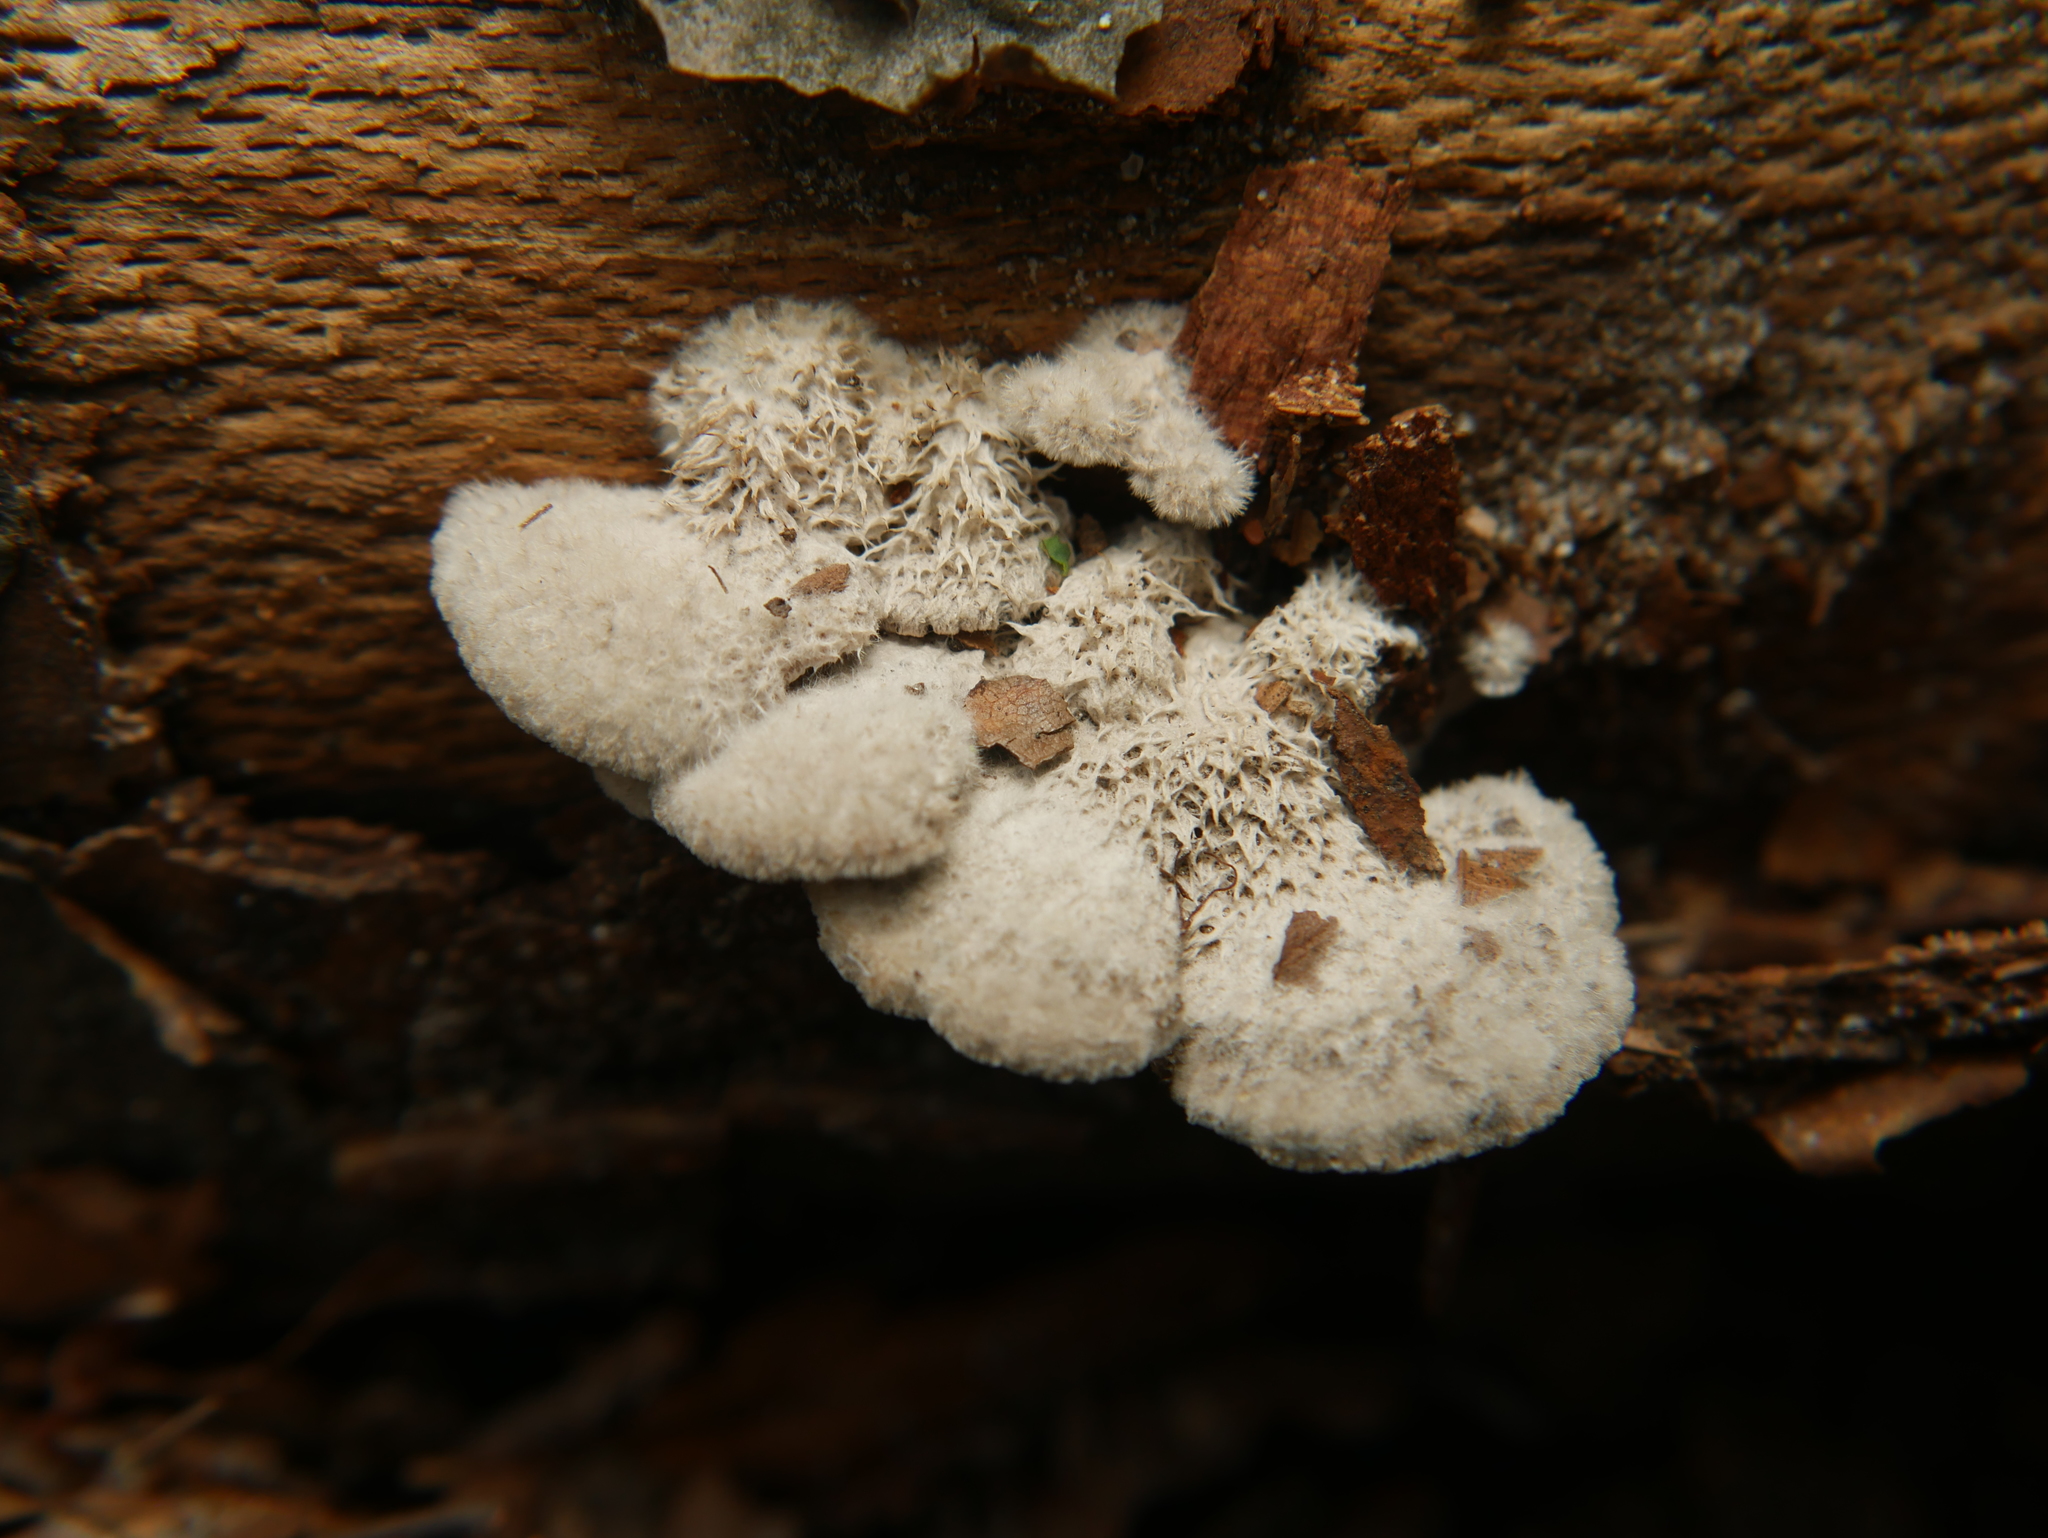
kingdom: Fungi
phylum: Basidiomycota
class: Agaricomycetes
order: Agaricales
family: Schizophyllaceae
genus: Schizophyllum
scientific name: Schizophyllum commune
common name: Common porecrust
